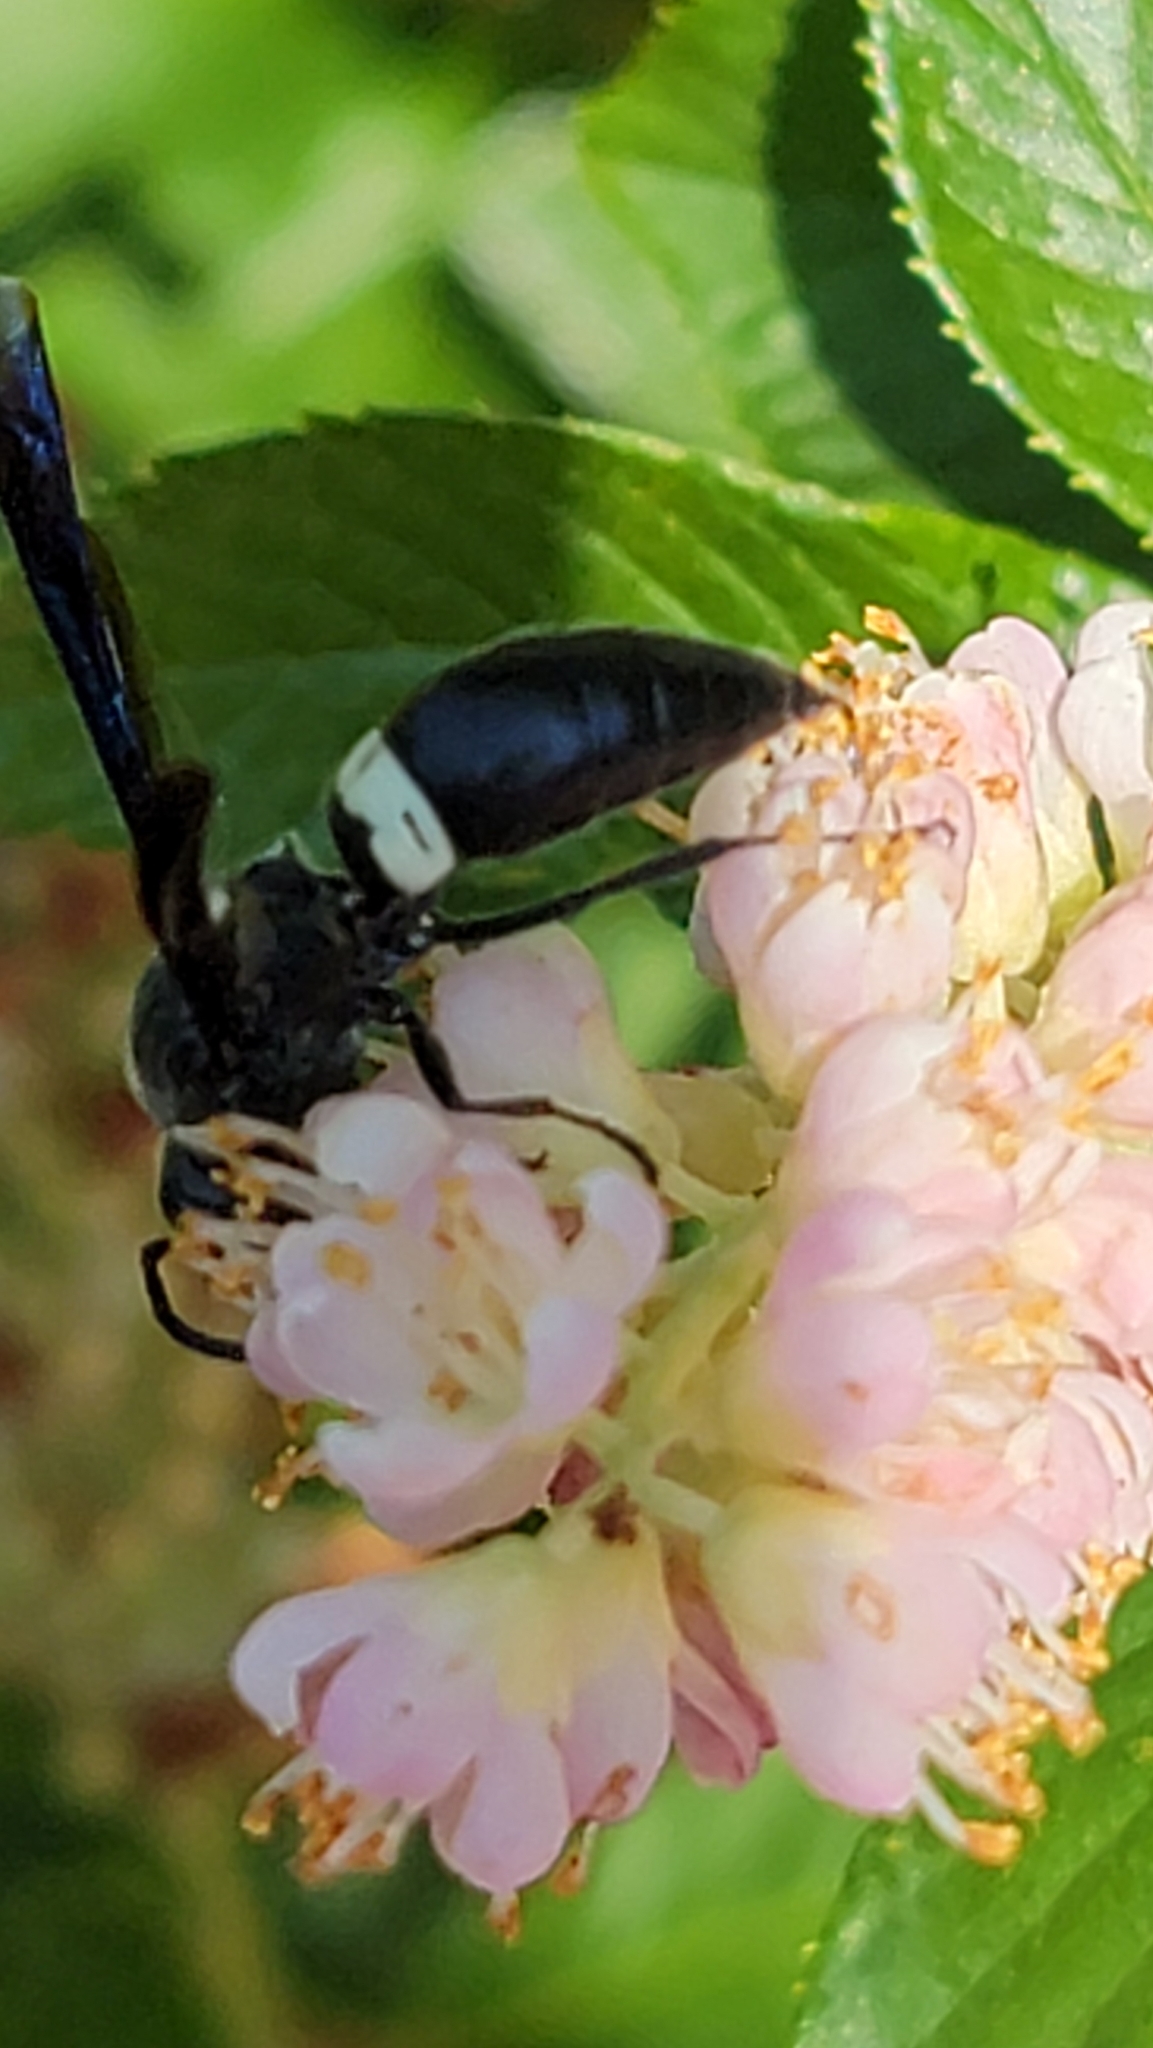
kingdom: Animalia
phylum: Arthropoda
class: Insecta
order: Hymenoptera
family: Eumenidae
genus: Monobia
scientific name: Monobia quadridens
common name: Four-toothed mason wasp
